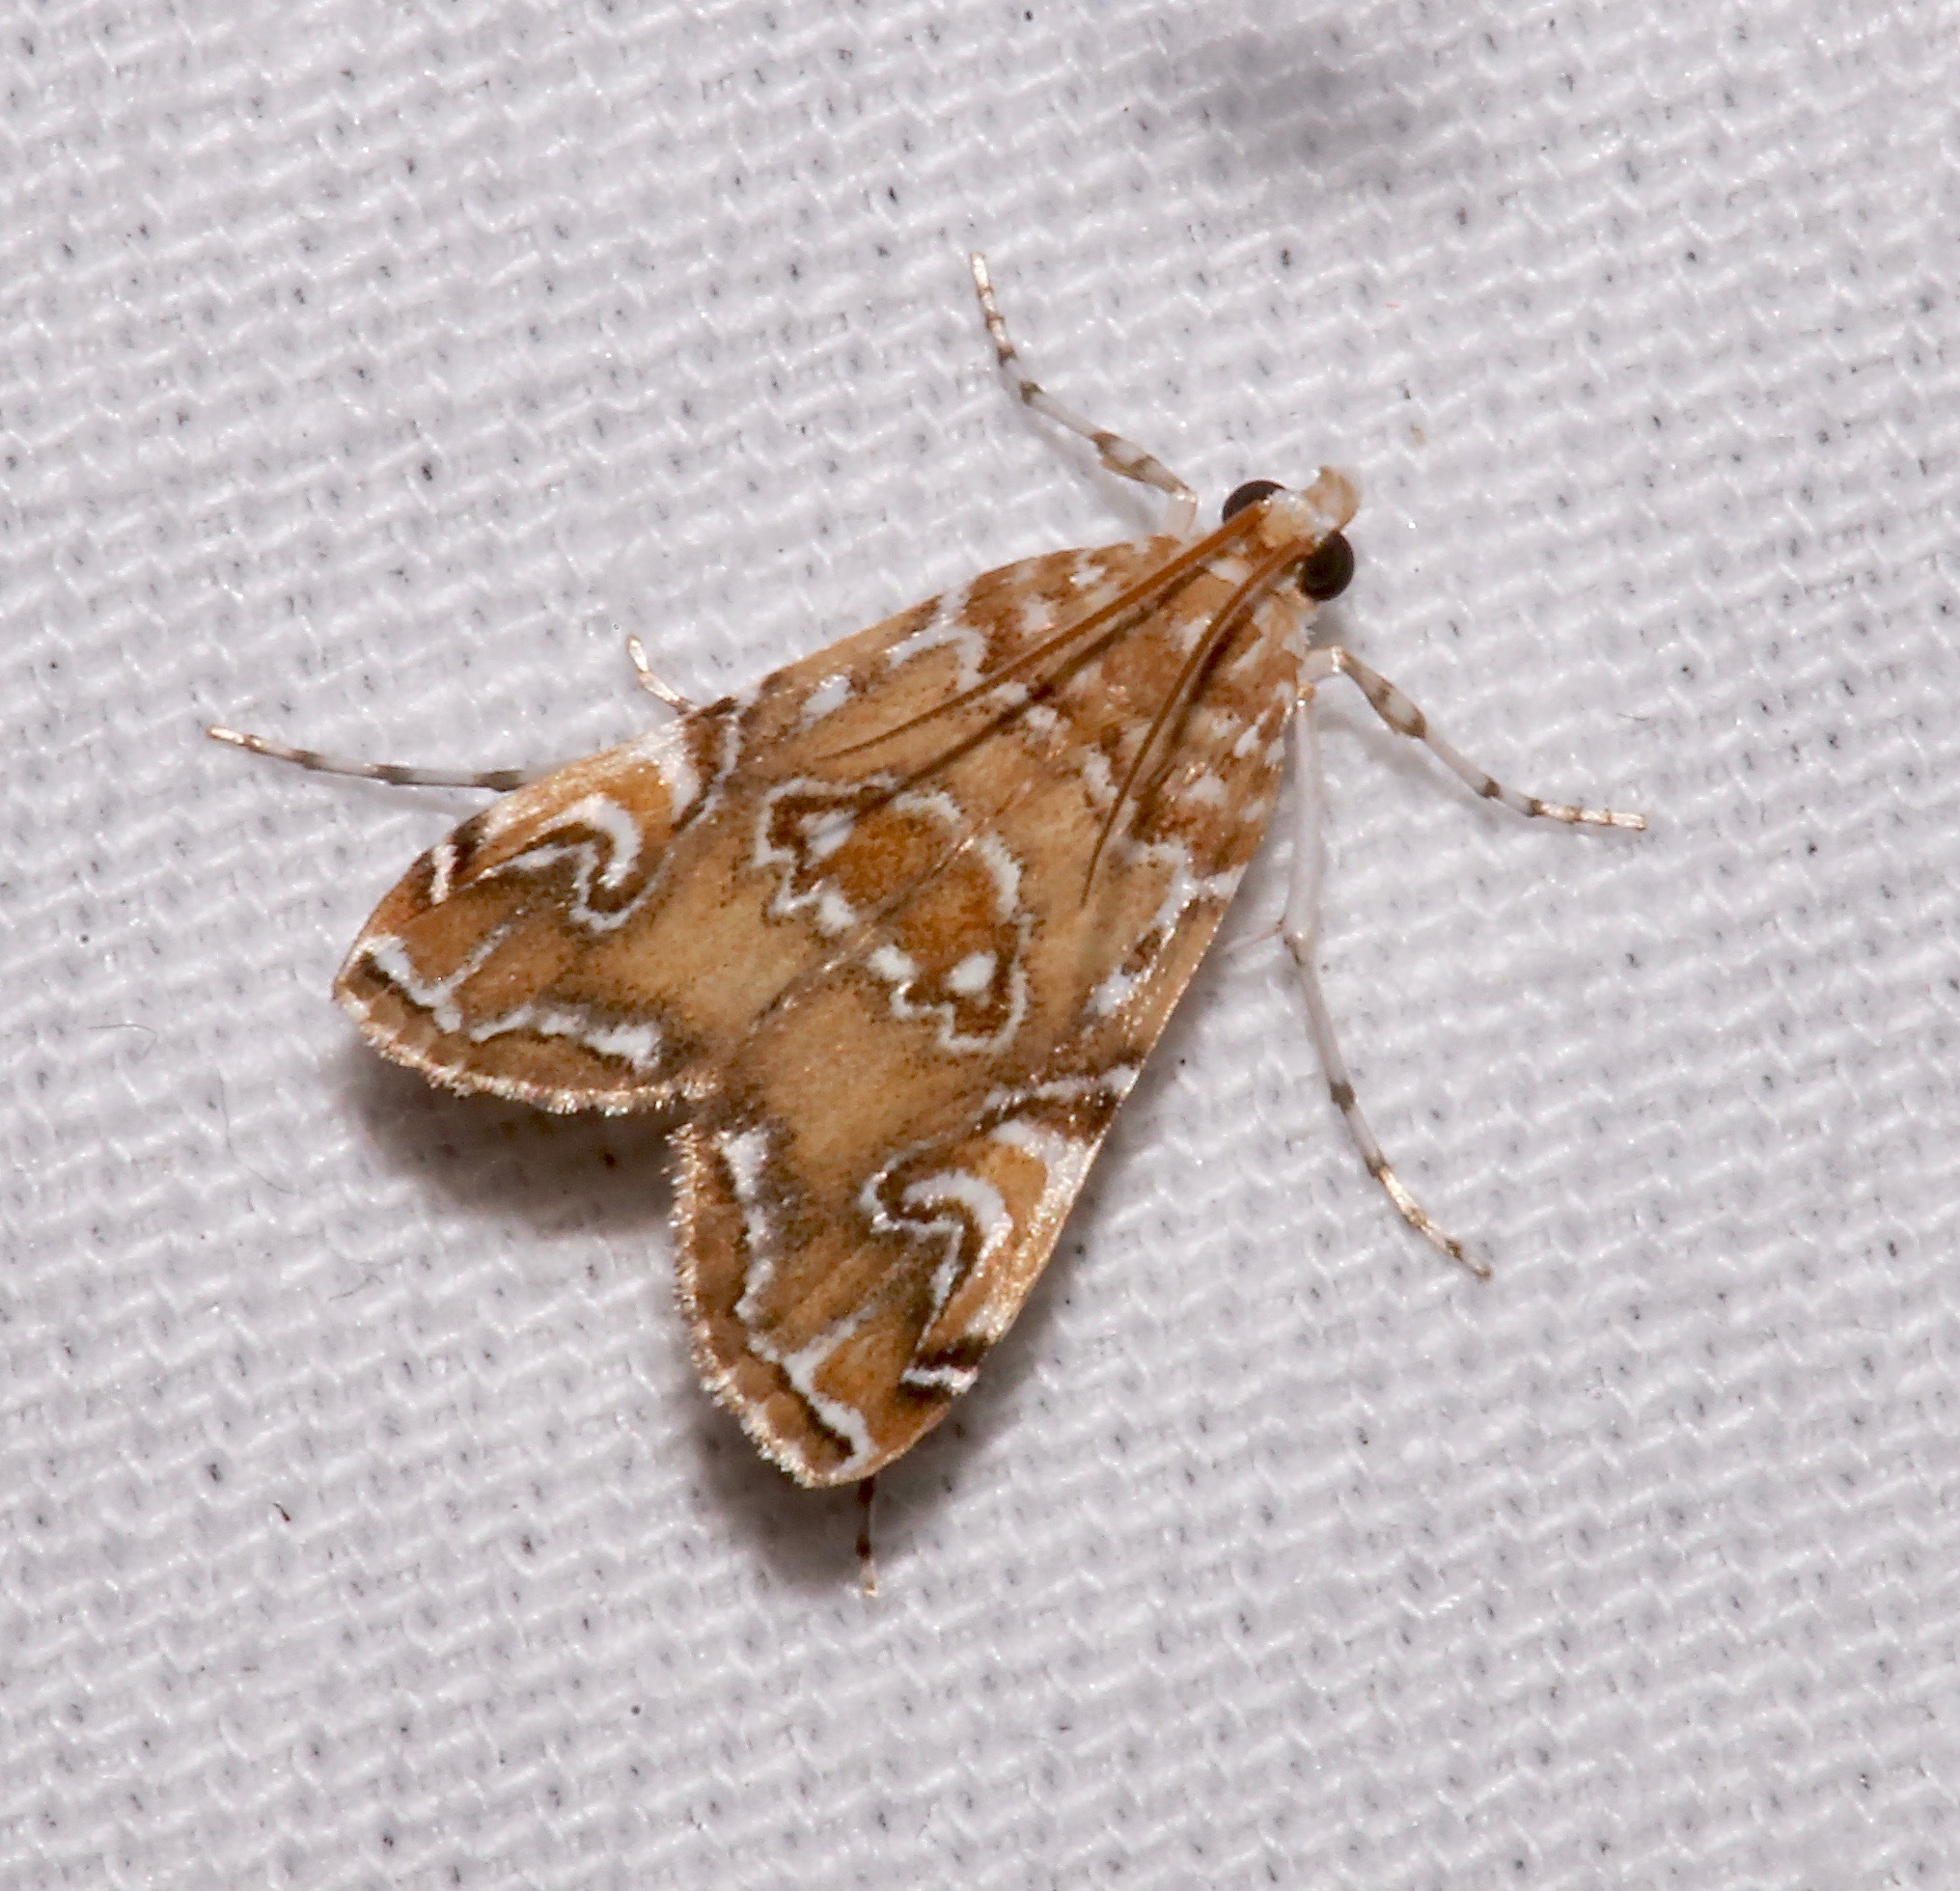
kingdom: Animalia
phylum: Arthropoda
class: Insecta
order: Lepidoptera
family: Crambidae
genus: Elophila
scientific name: Elophila gyralis
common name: Waterlily borer moth
